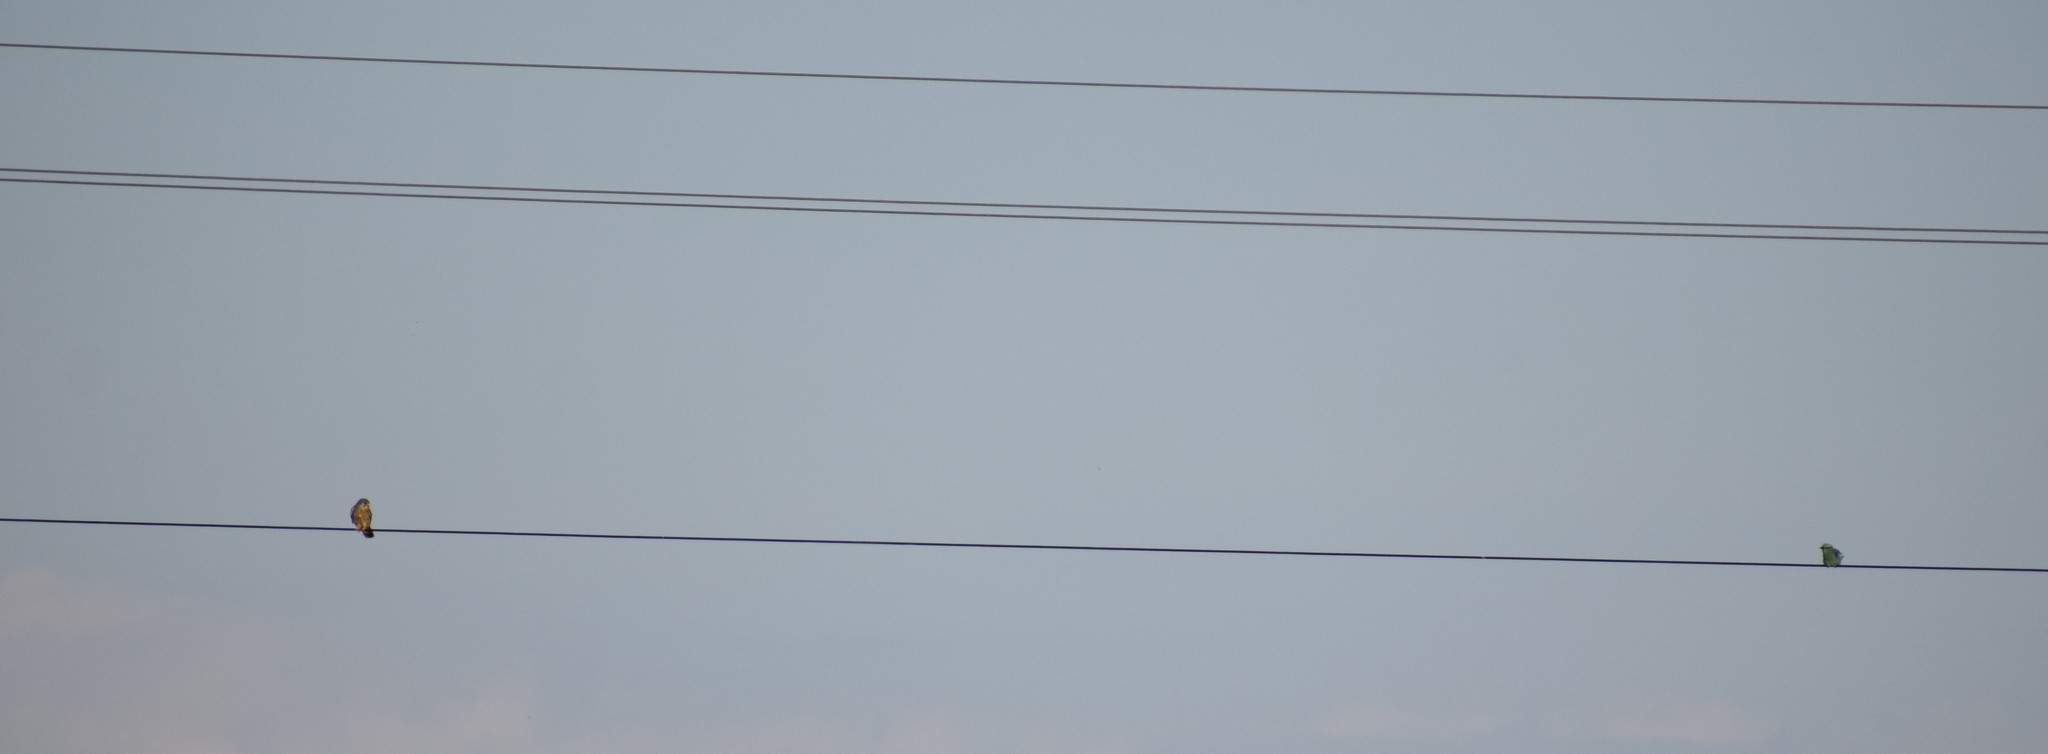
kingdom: Animalia
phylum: Chordata
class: Aves
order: Falconiformes
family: Falconidae
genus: Falco
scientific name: Falco tinnunculus
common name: Common kestrel
